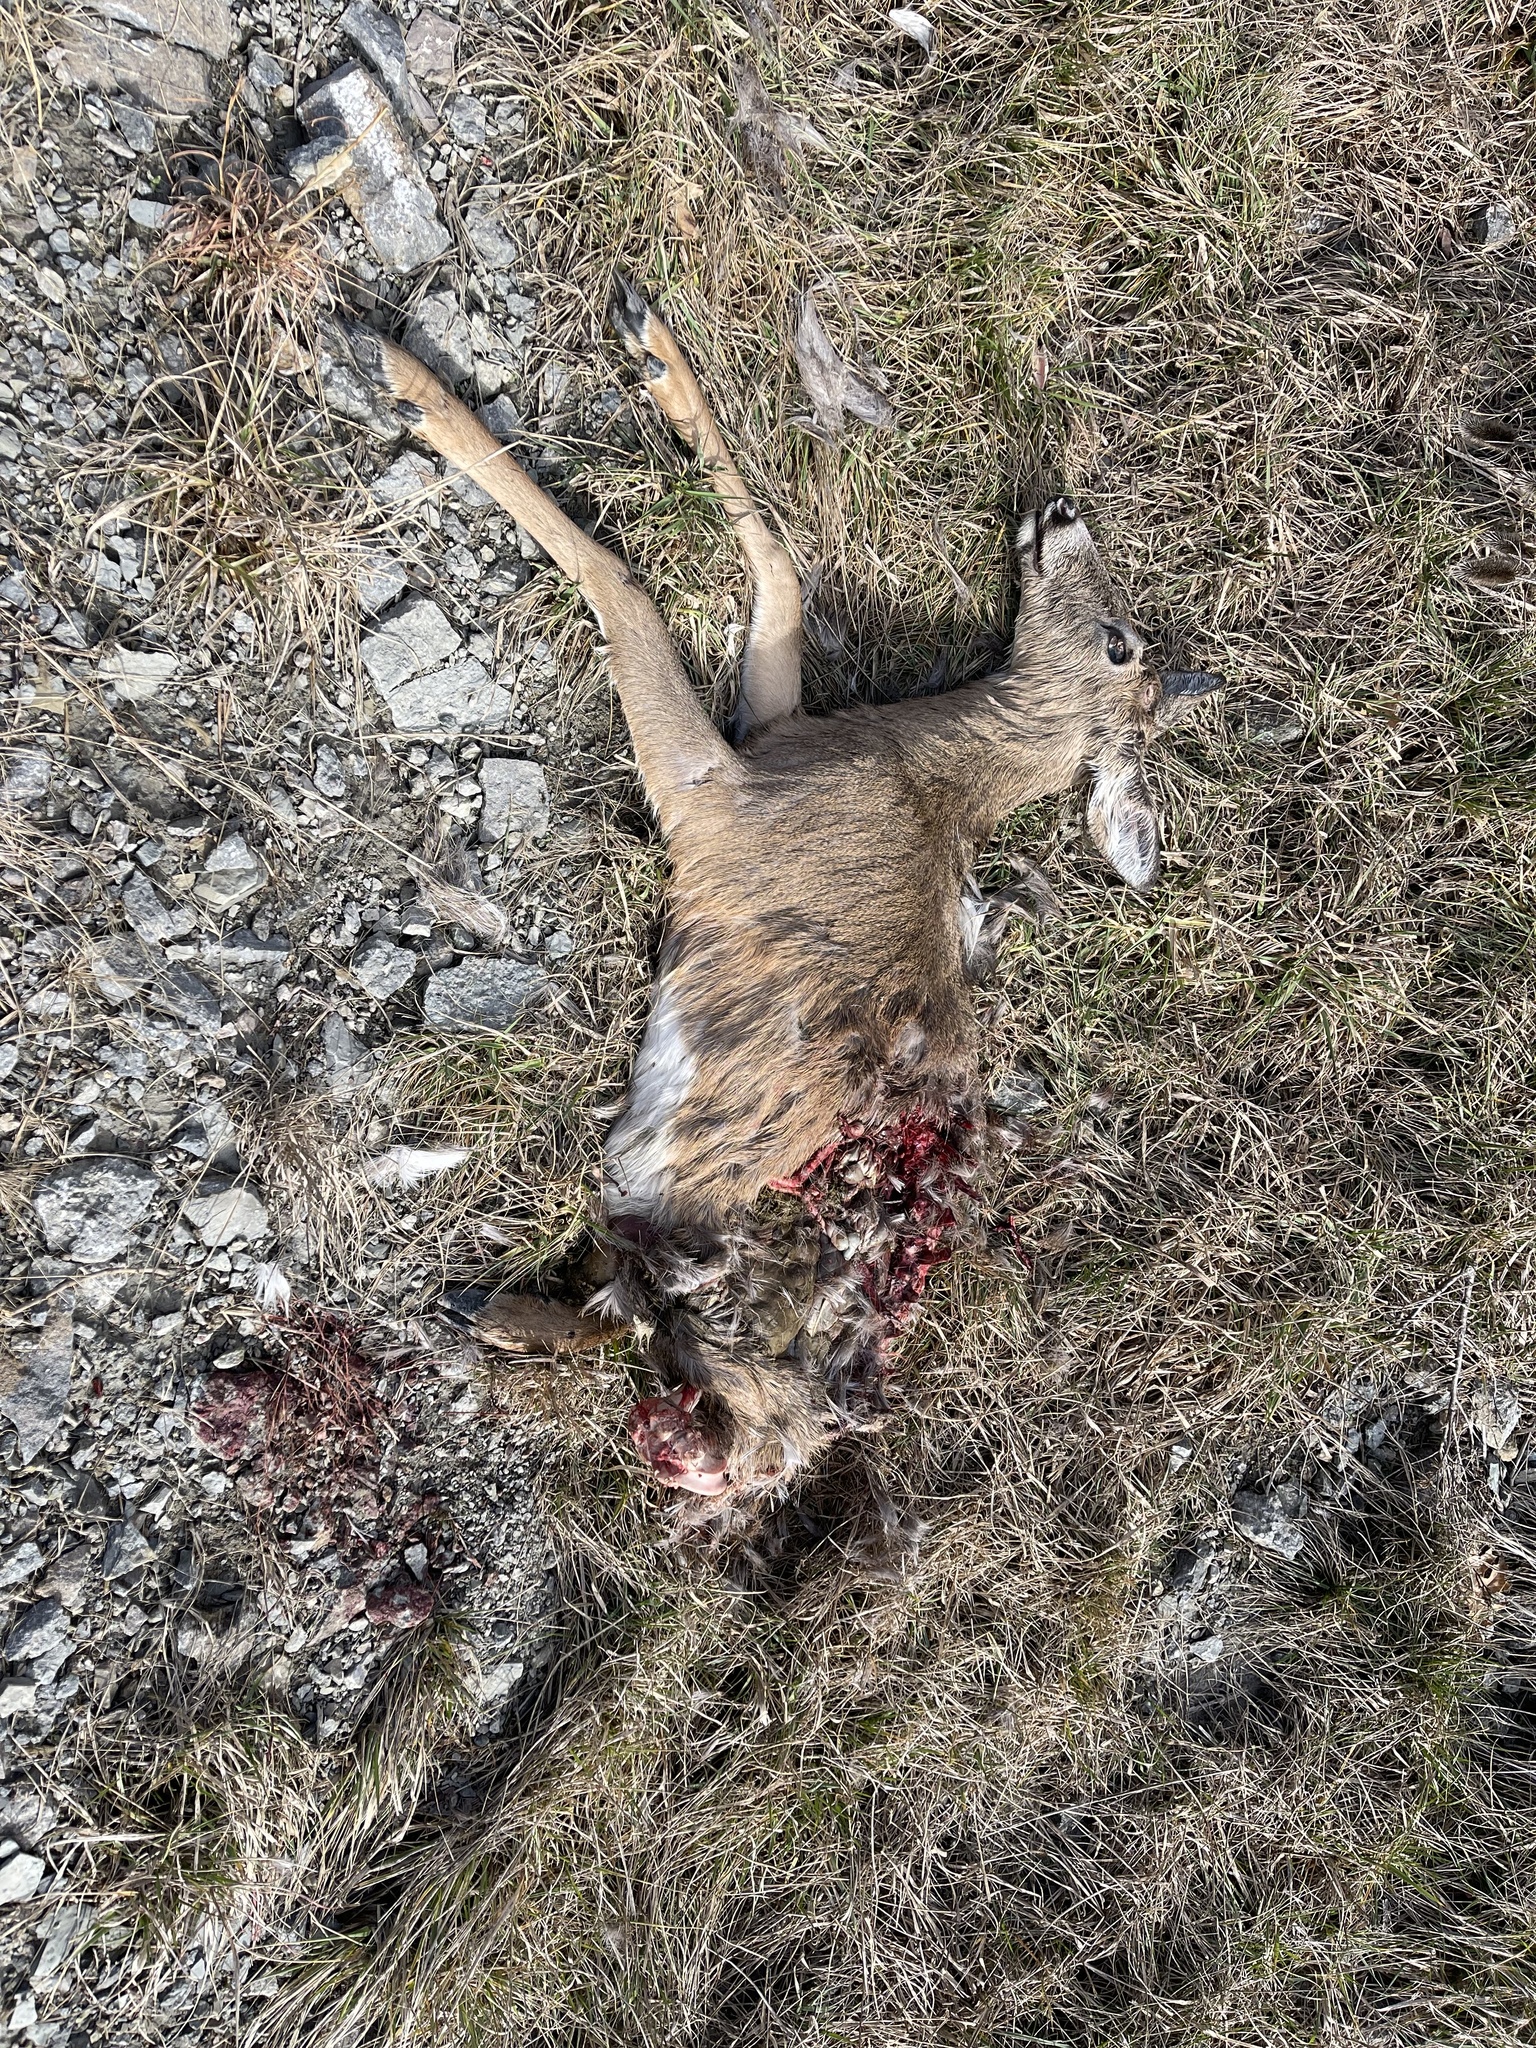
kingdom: Animalia
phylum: Chordata
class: Mammalia
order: Artiodactyla
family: Cervidae
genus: Odocoileus
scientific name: Odocoileus virginianus
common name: White-tailed deer
